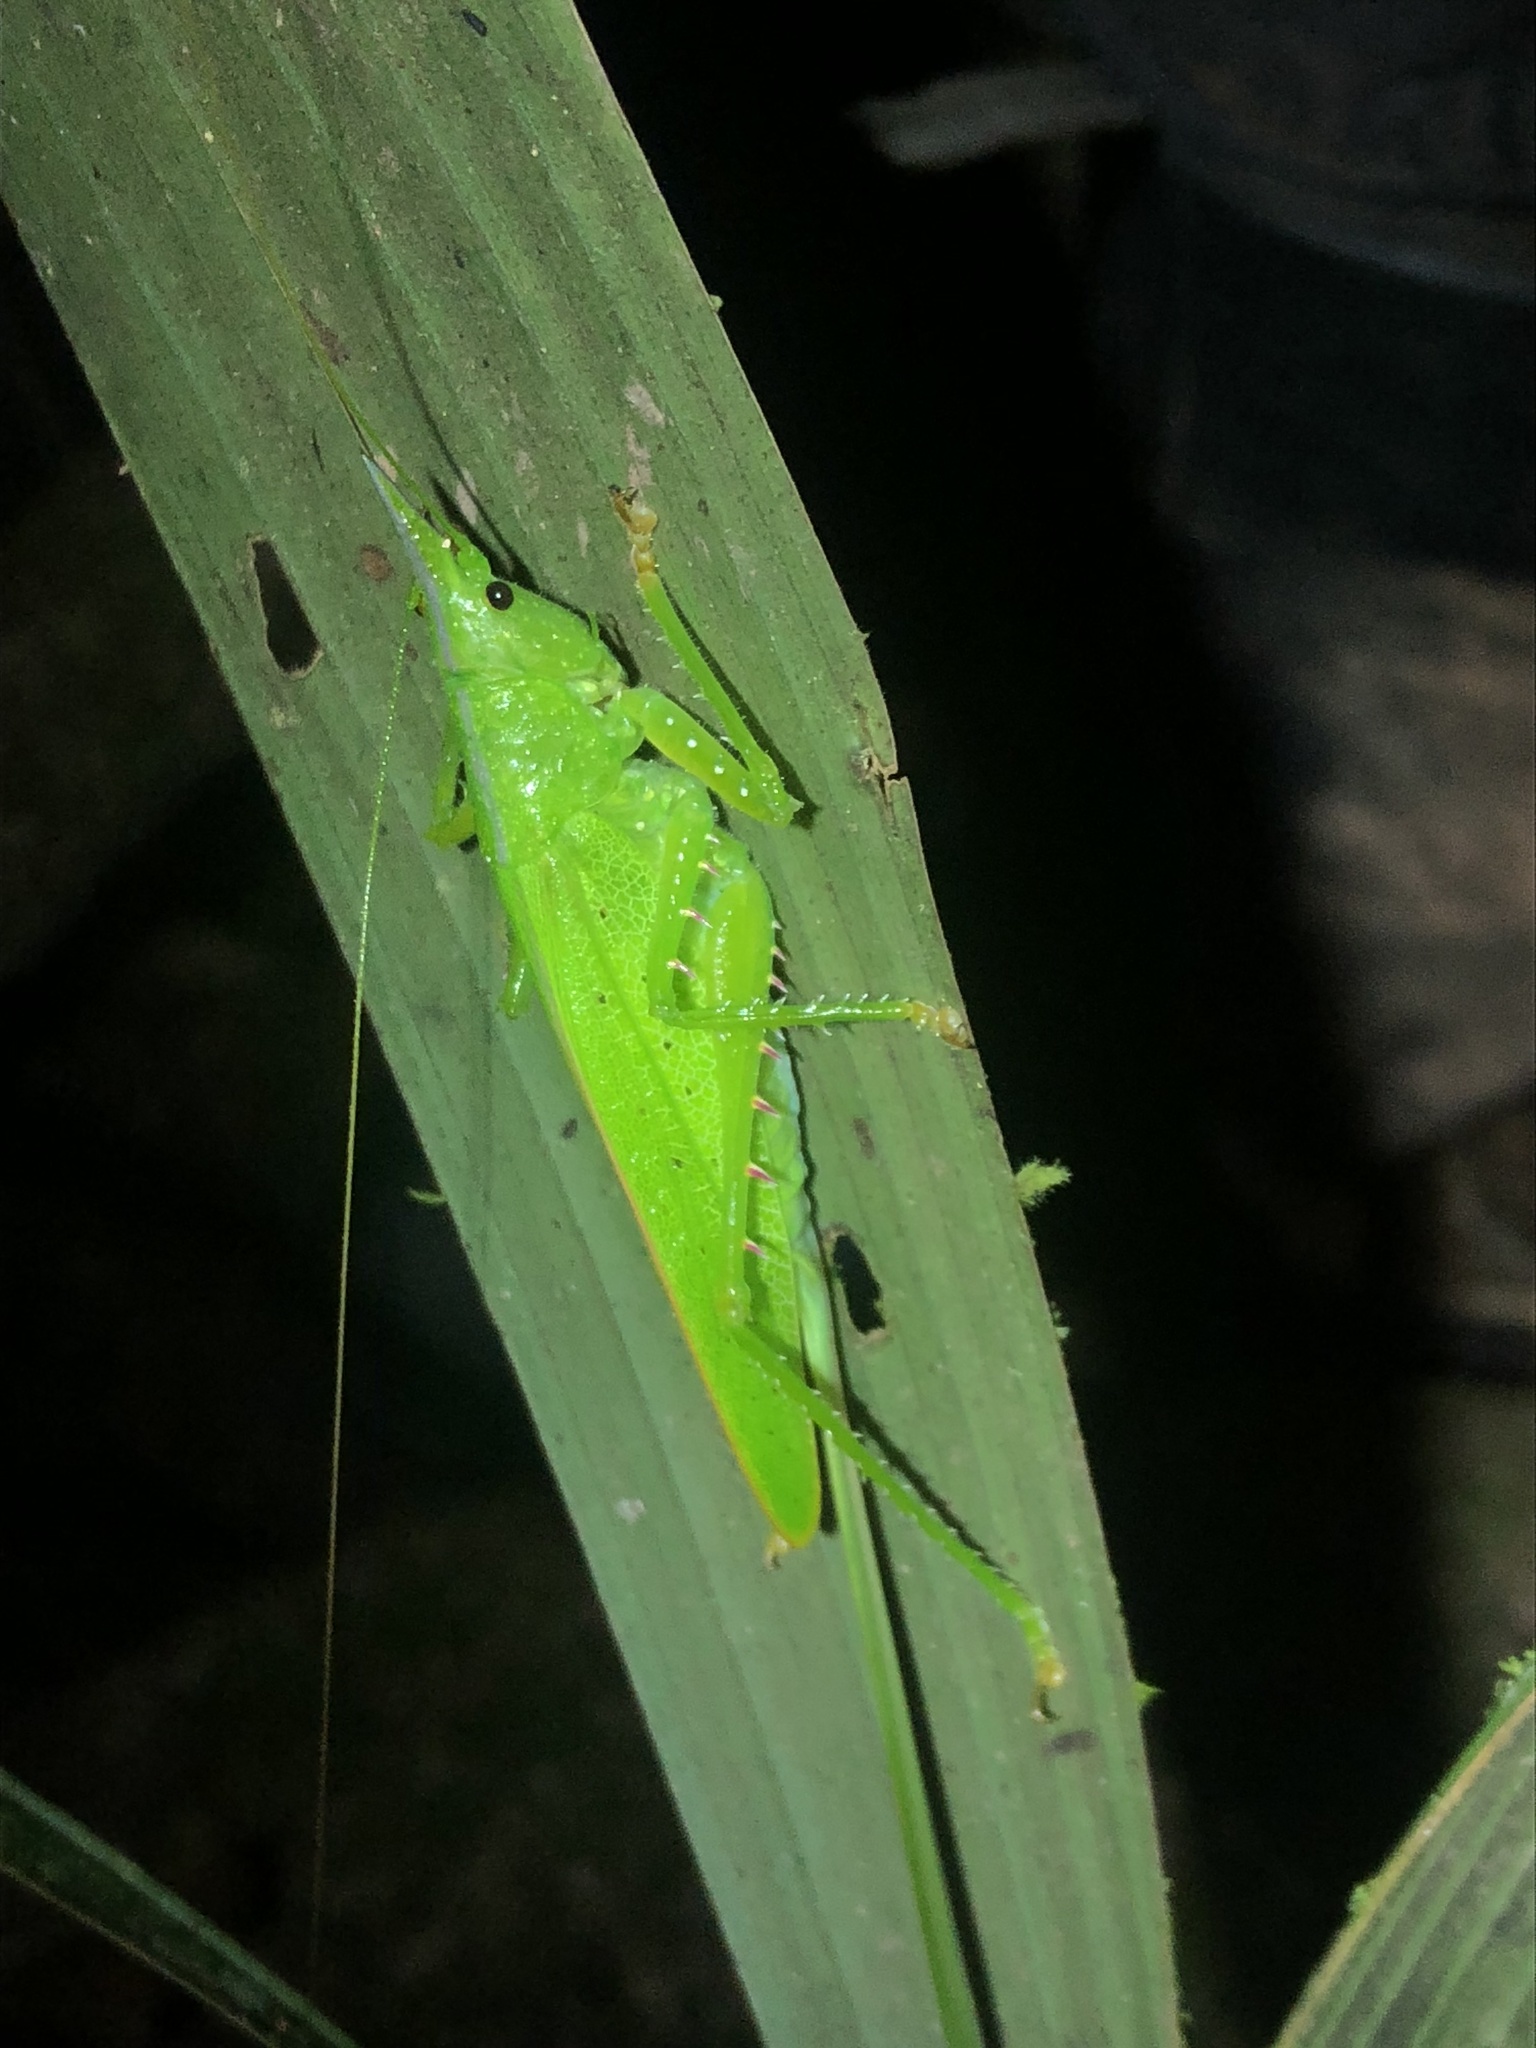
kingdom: Animalia
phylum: Arthropoda
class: Insecta
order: Orthoptera
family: Tettigoniidae
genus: Copiphora
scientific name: Copiphora gracilis
